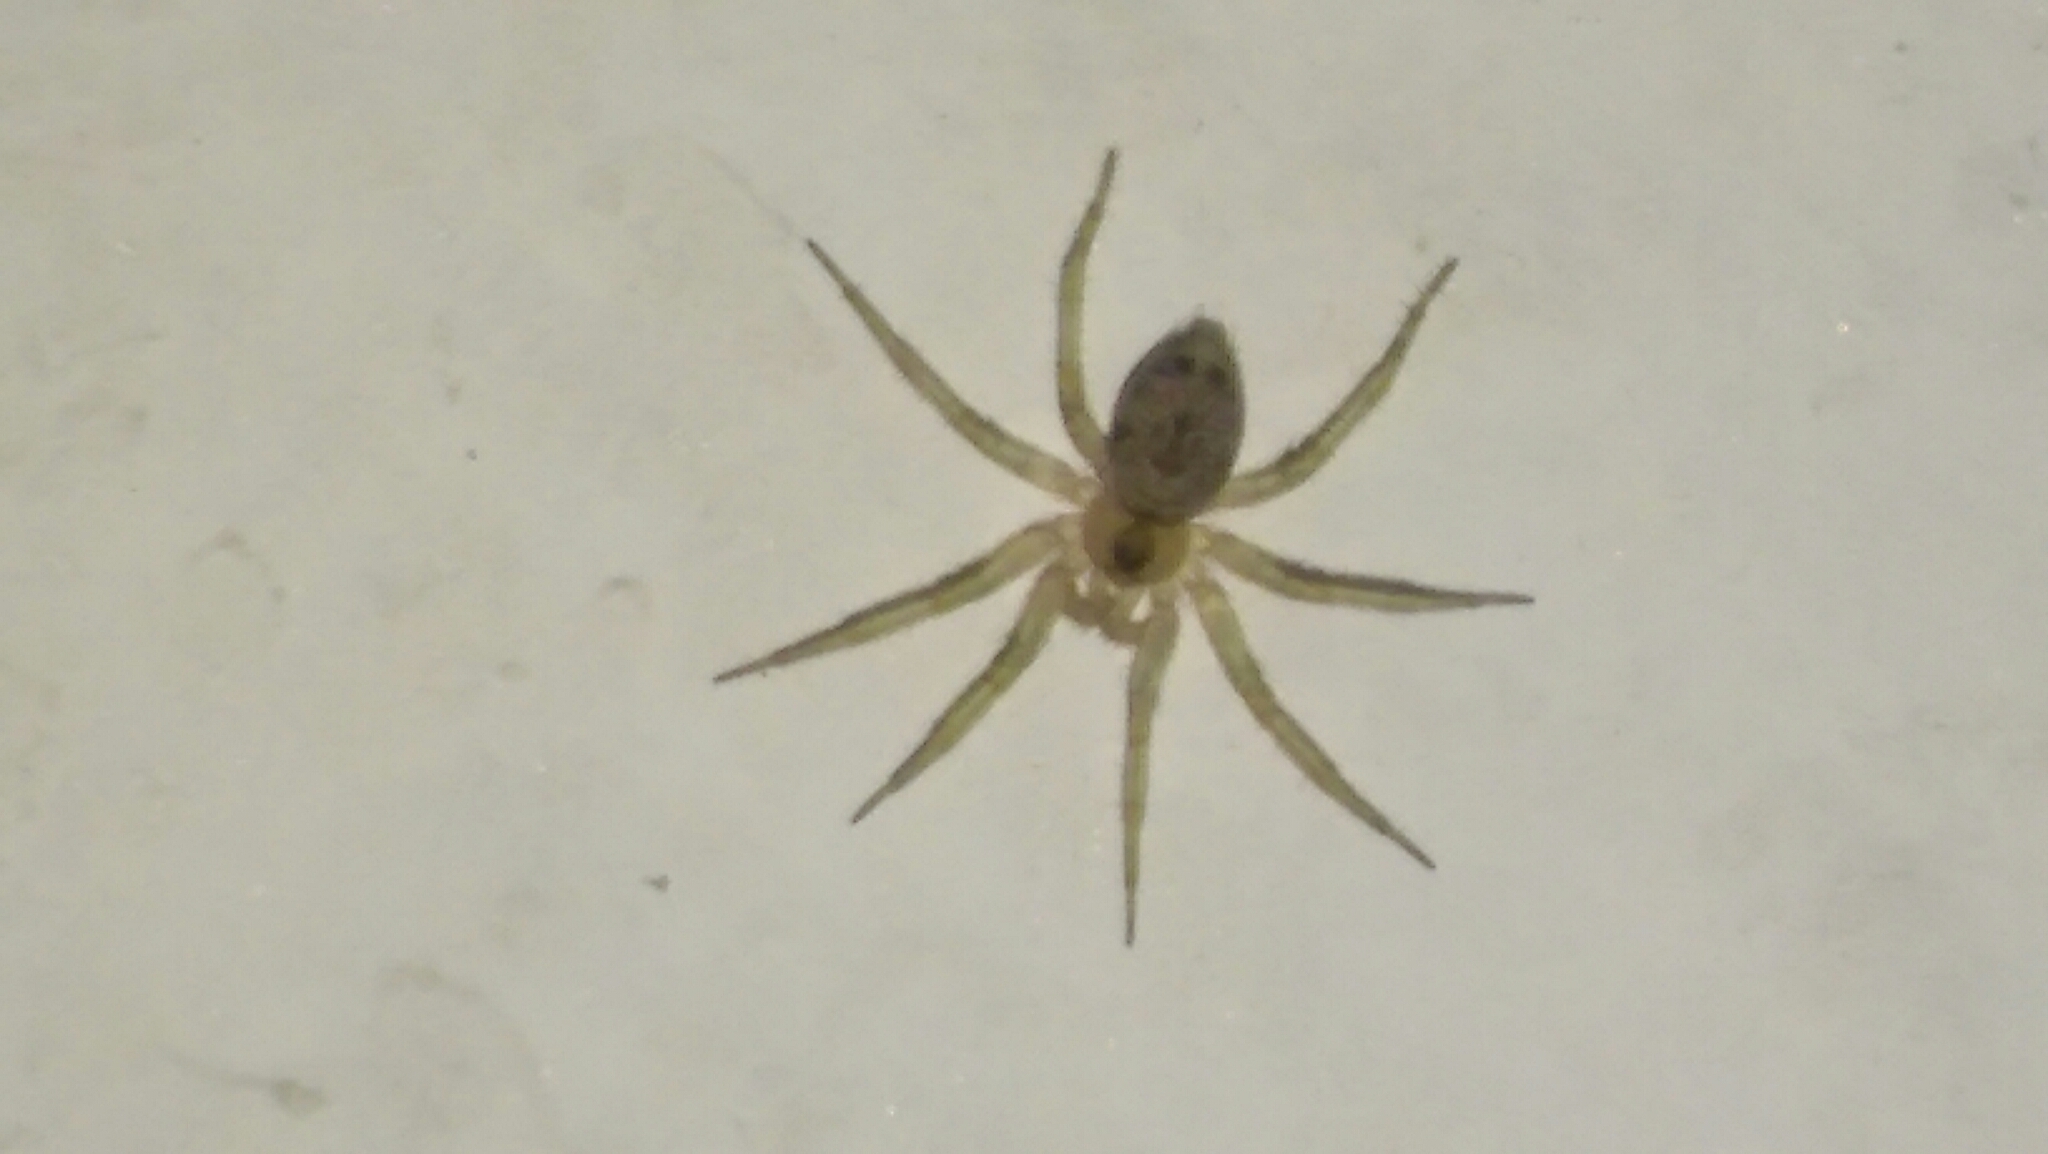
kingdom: Animalia
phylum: Arthropoda
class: Arachnida
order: Araneae
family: Oecobiidae
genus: Oecobius
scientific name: Oecobius navus
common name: Flatmesh weaver
